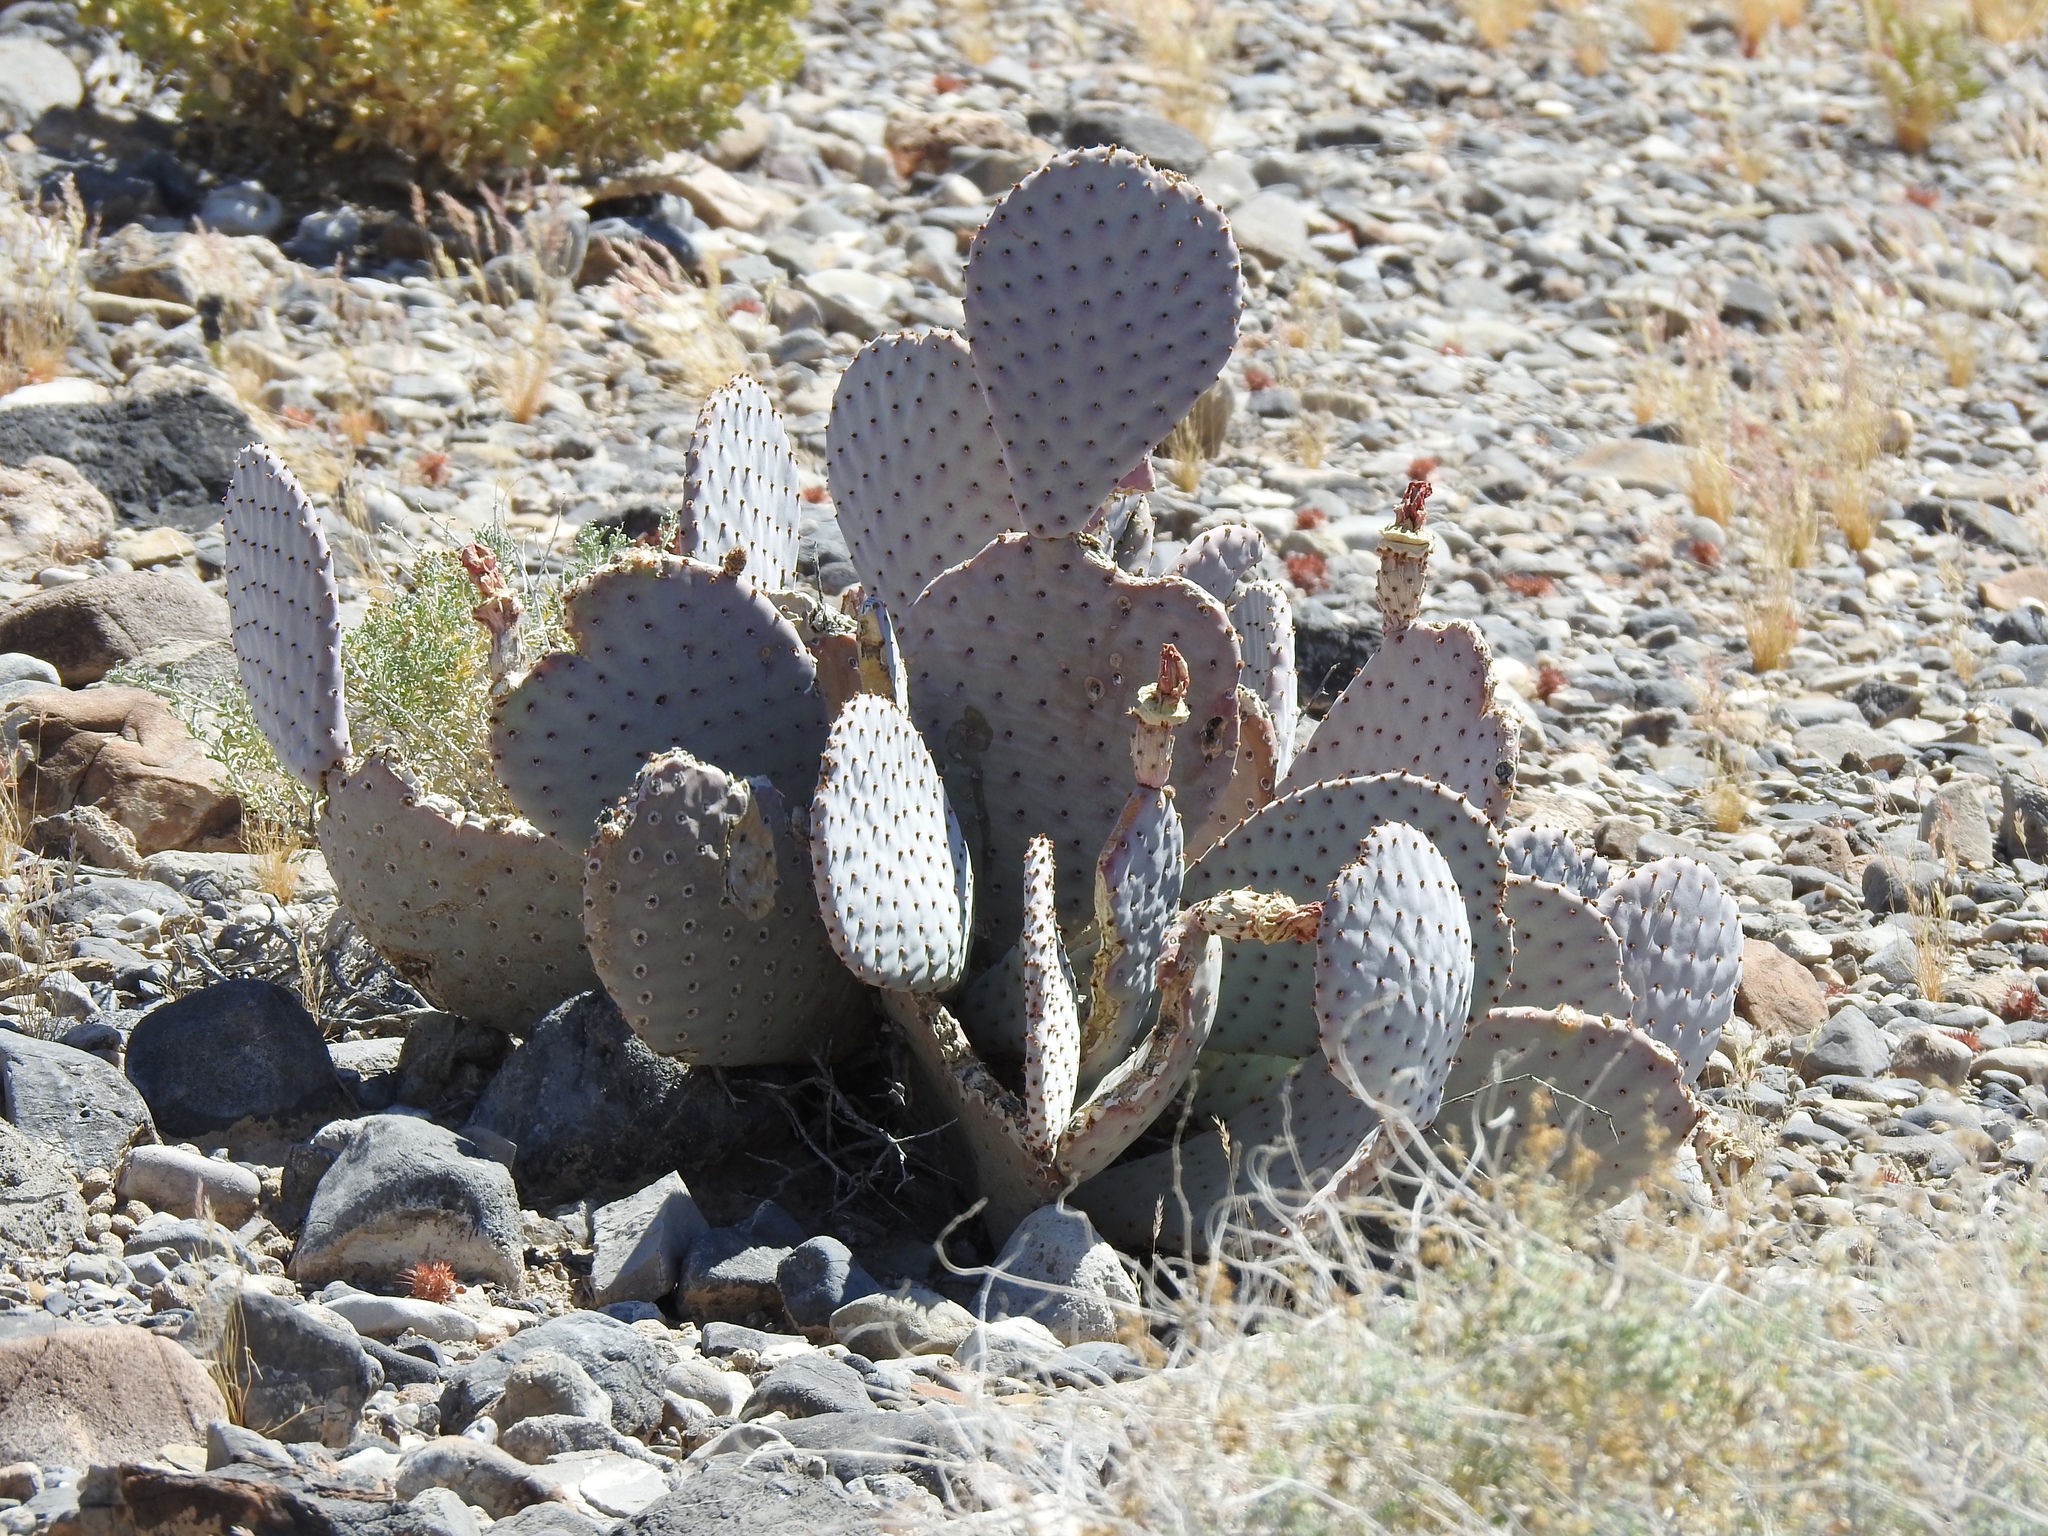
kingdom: Plantae
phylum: Tracheophyta
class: Magnoliopsida
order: Caryophyllales
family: Cactaceae
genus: Opuntia
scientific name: Opuntia basilaris
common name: Beavertail prickly-pear
